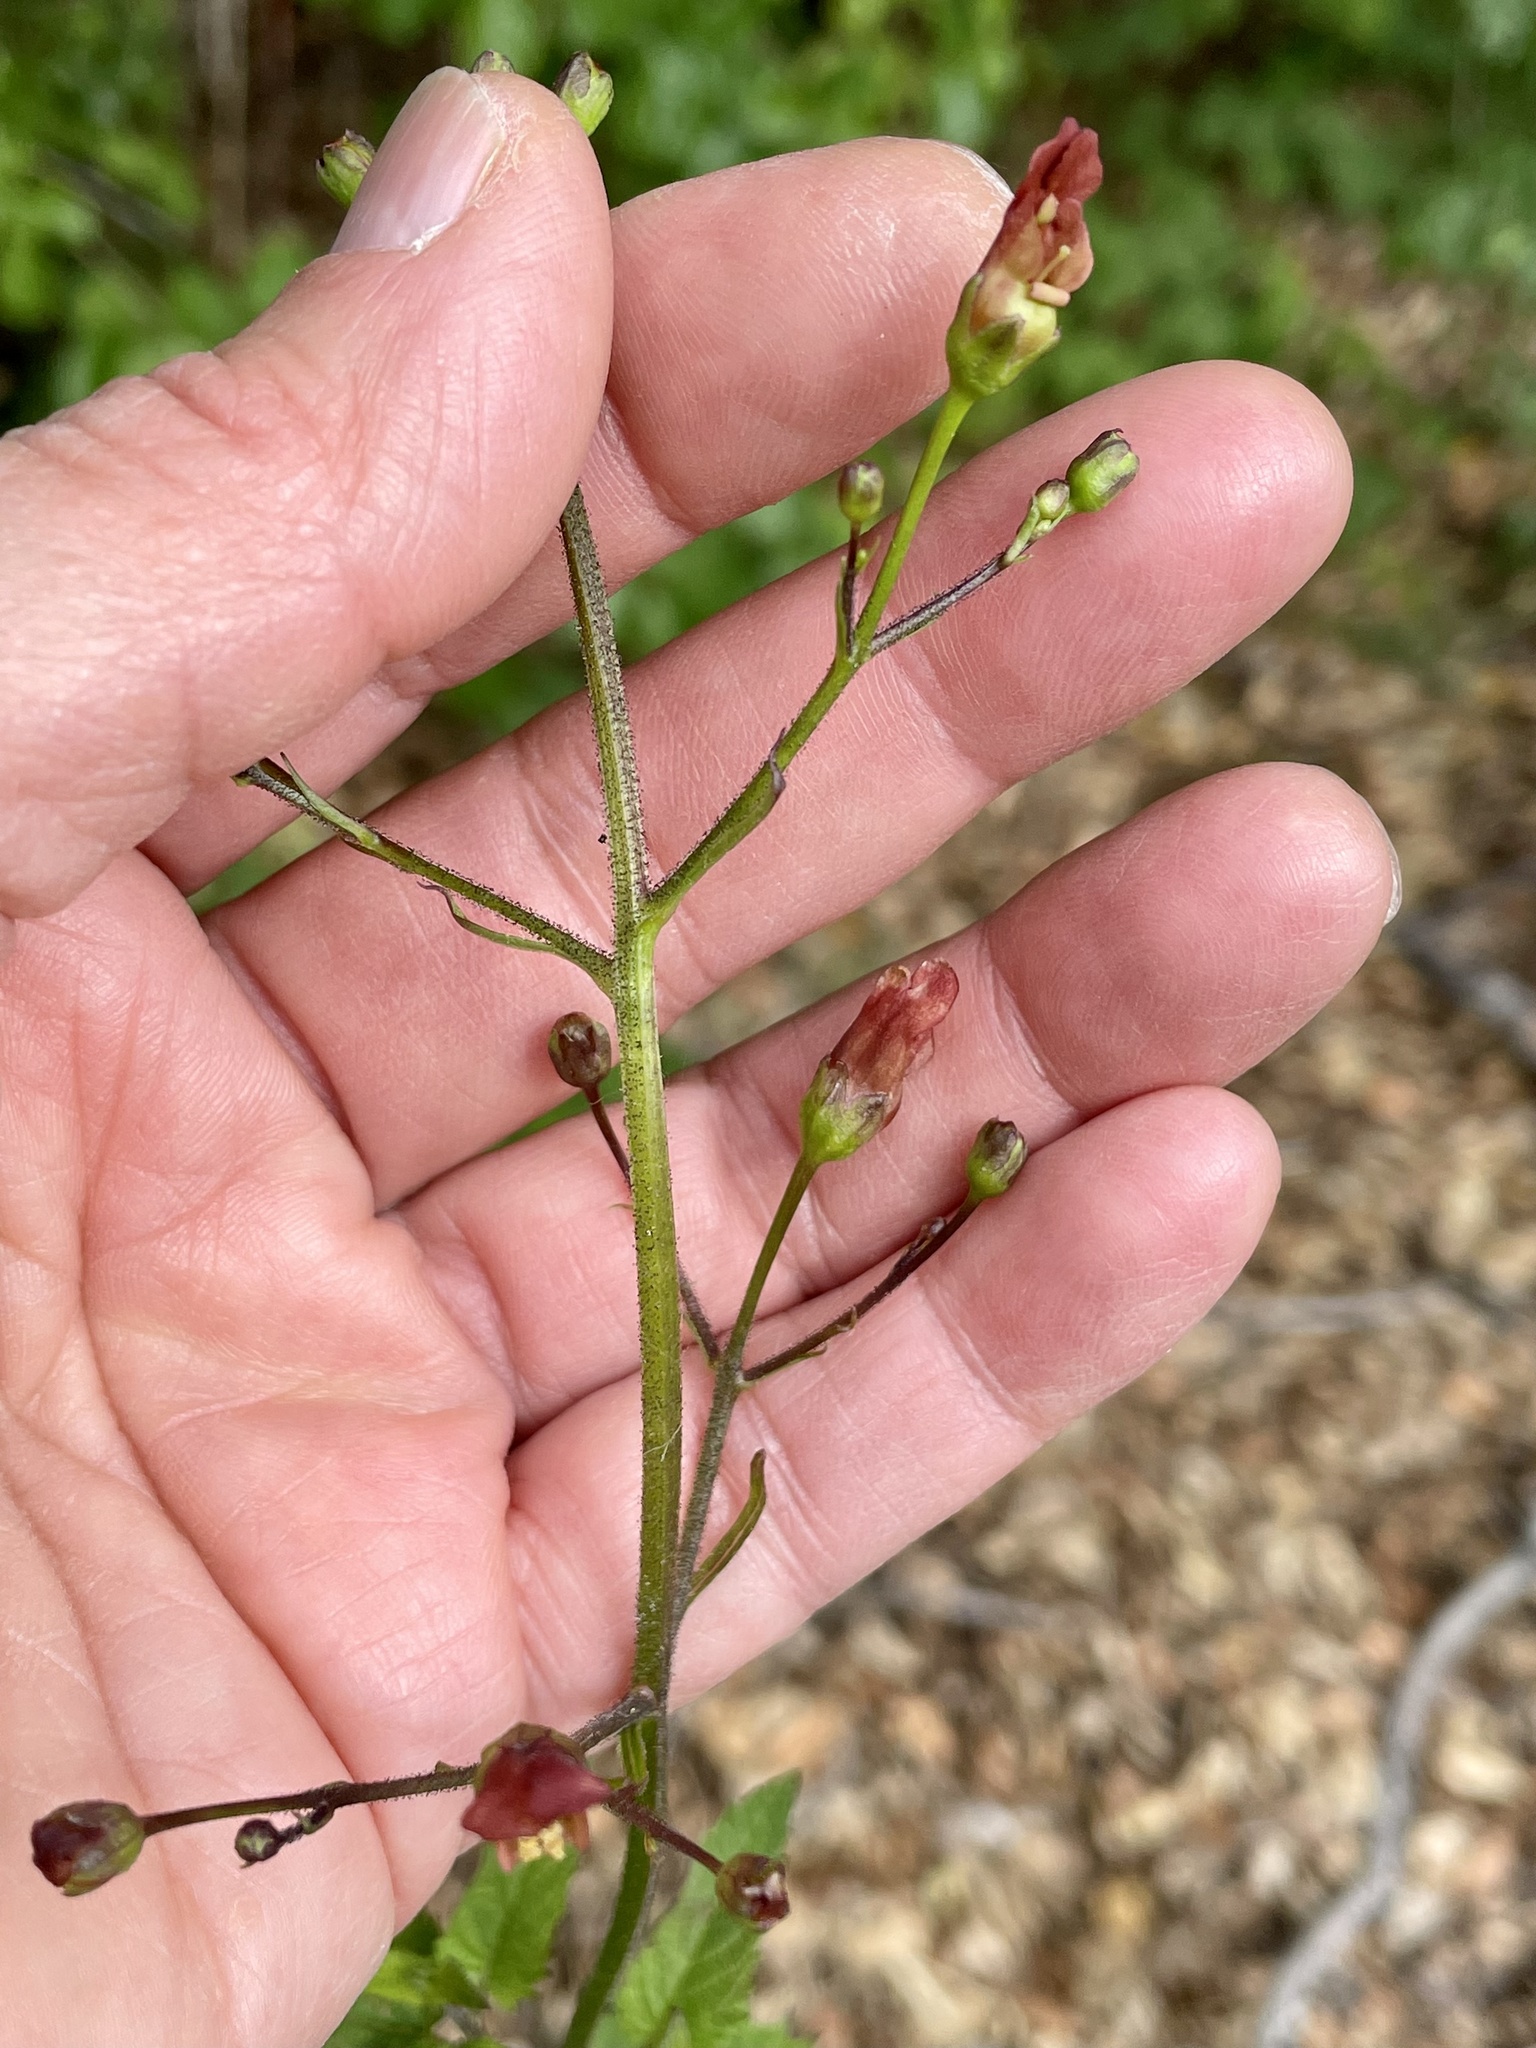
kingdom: Plantae
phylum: Tracheophyta
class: Magnoliopsida
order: Lamiales
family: Scrophulariaceae
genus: Scrophularia
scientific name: Scrophularia californica
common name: California figwort
